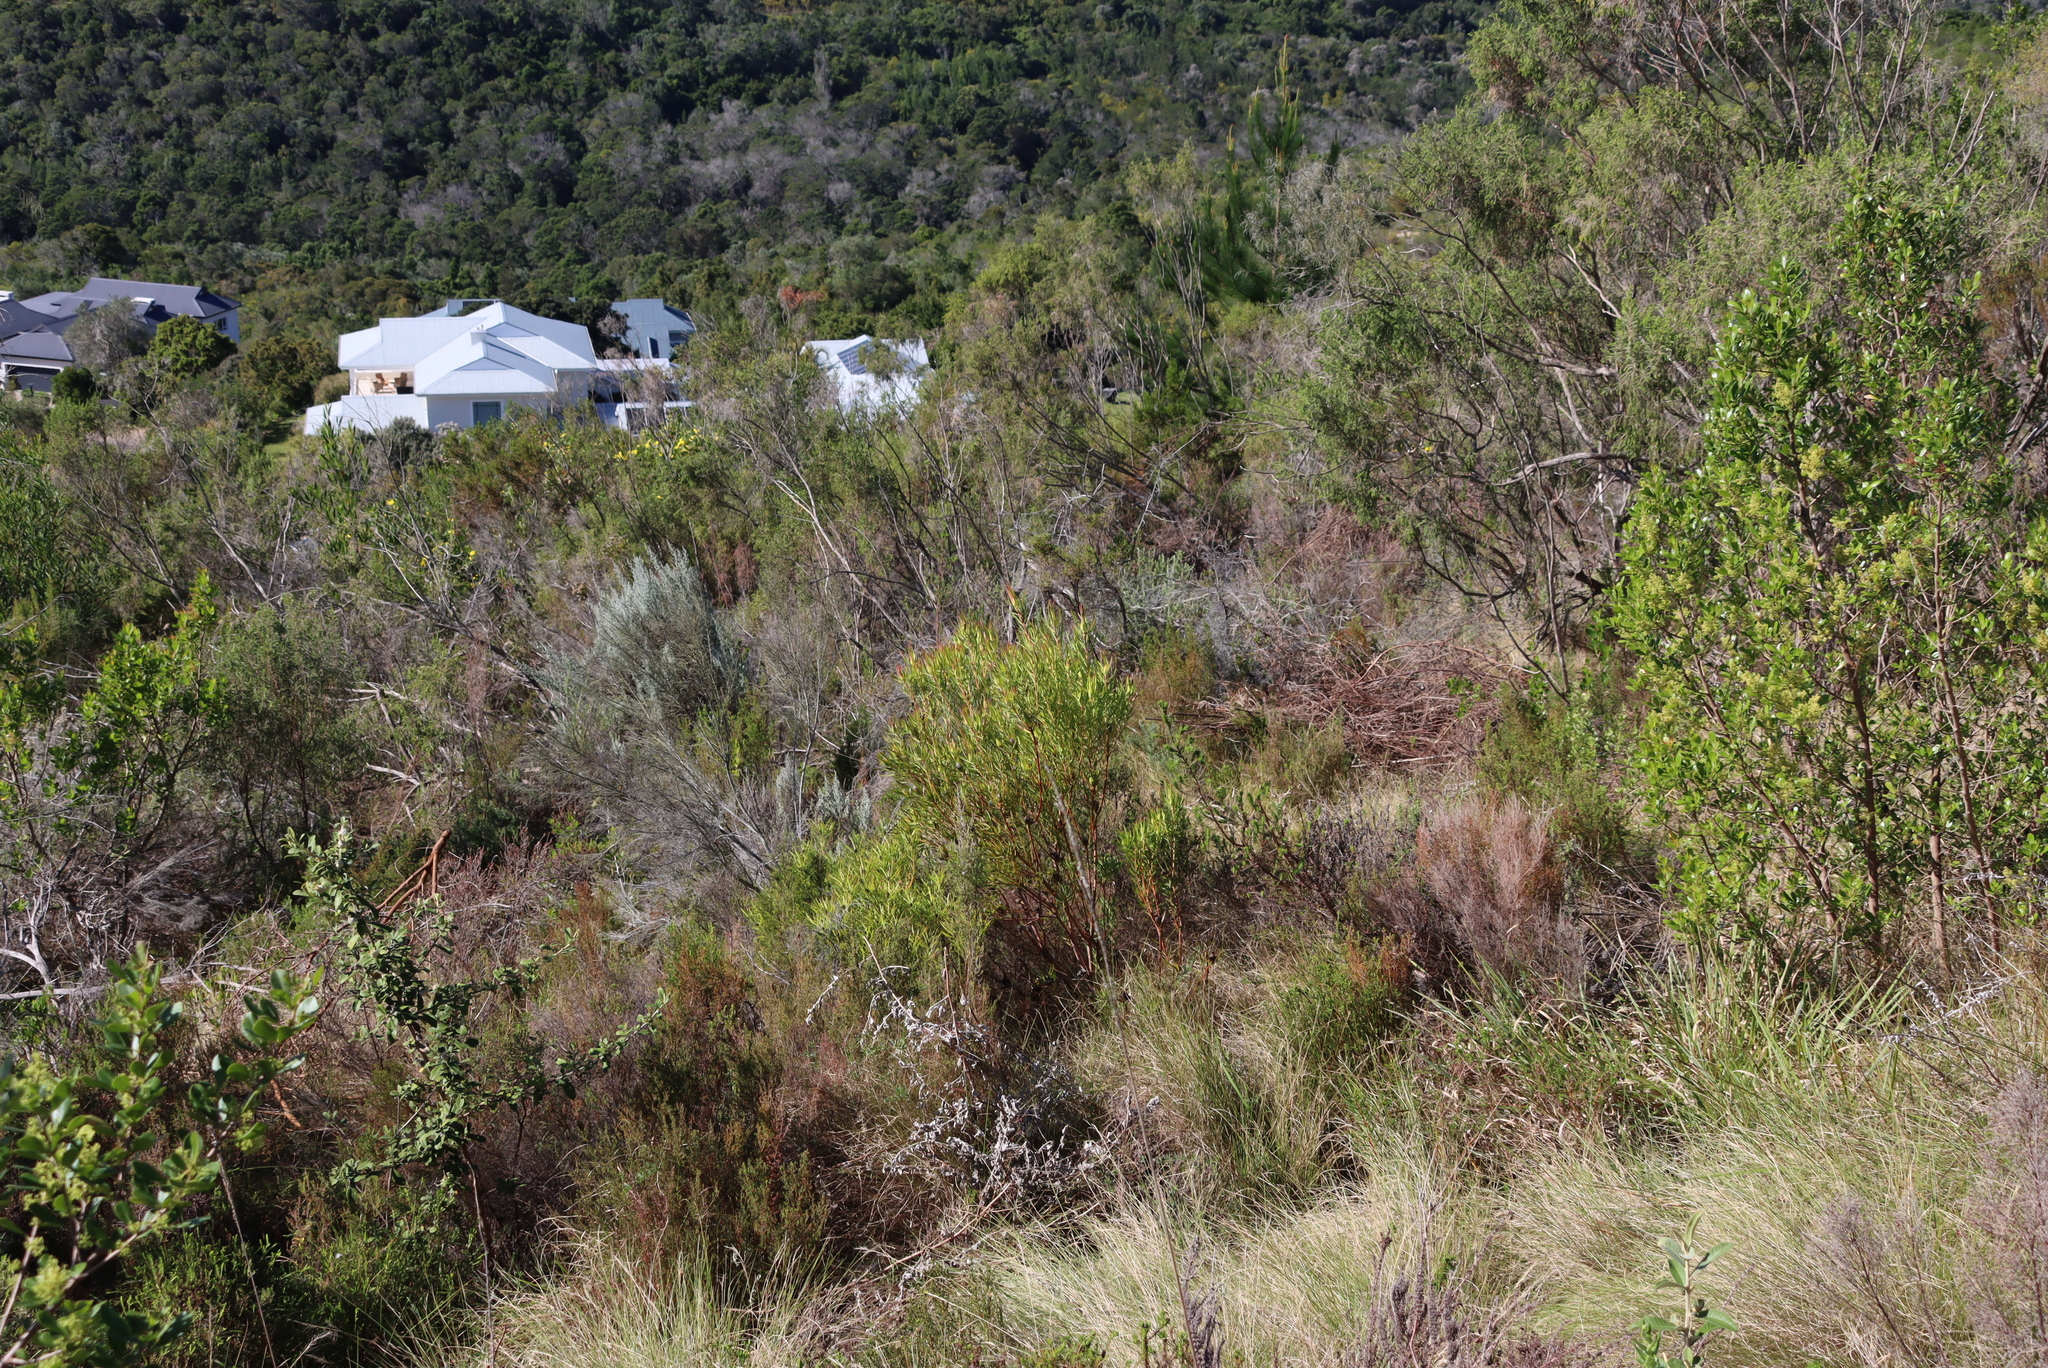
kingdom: Plantae
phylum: Tracheophyta
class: Magnoliopsida
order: Proteales
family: Proteaceae
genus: Leucadendron
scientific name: Leucadendron salignum
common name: Common sunshine conebush
